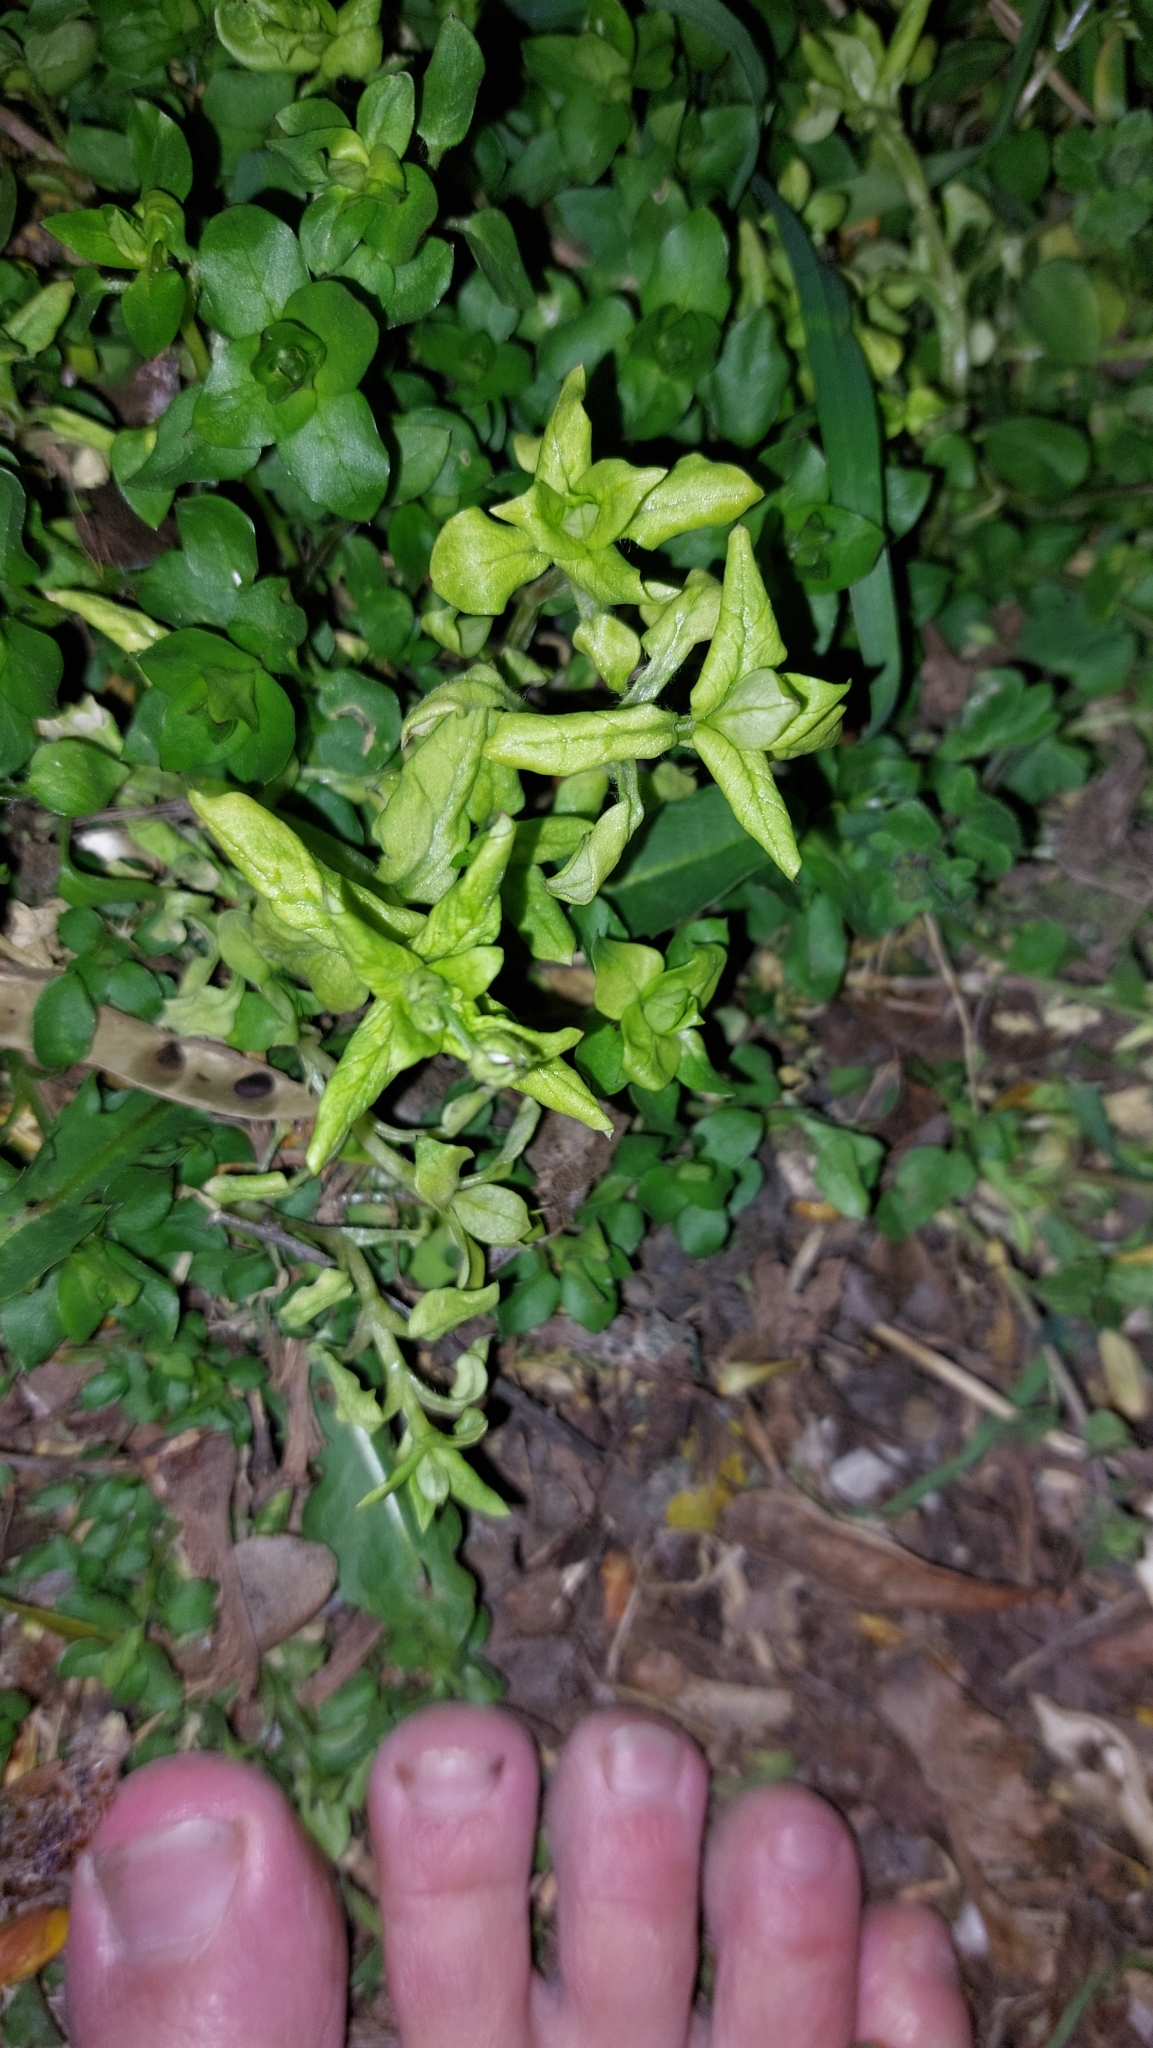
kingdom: Plantae
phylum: Tracheophyta
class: Magnoliopsida
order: Caryophyllales
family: Caryophyllaceae
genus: Stellaria
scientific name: Stellaria
